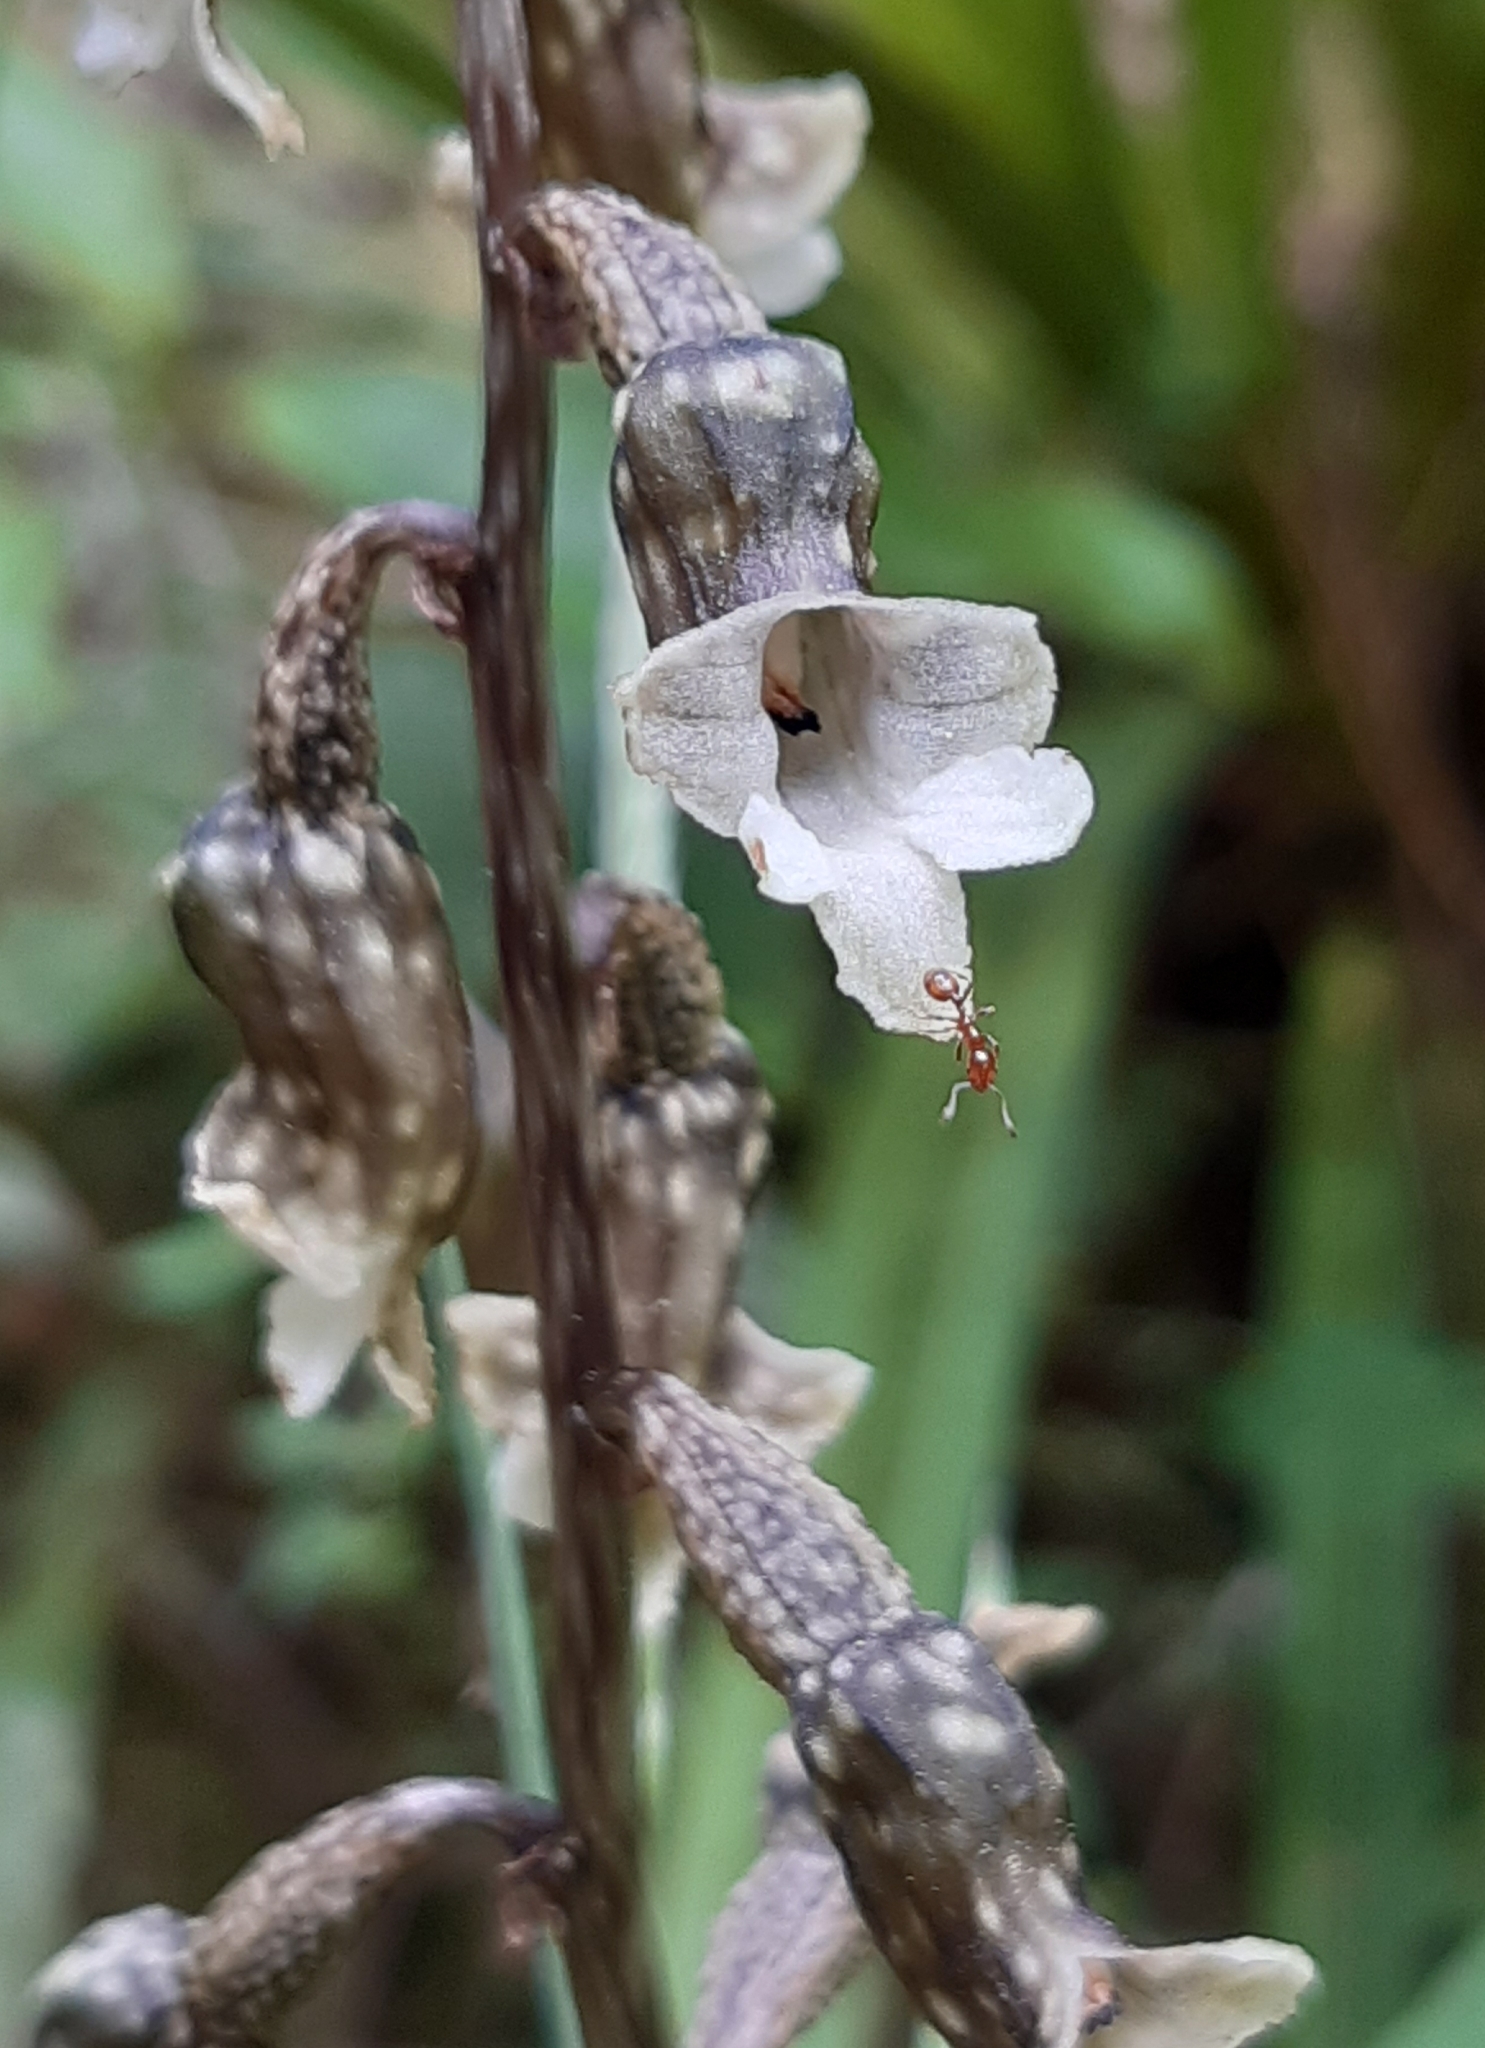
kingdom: Plantae
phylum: Tracheophyta
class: Liliopsida
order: Asparagales
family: Orchidaceae
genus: Gastrodia
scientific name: Gastrodia cunninghamii
